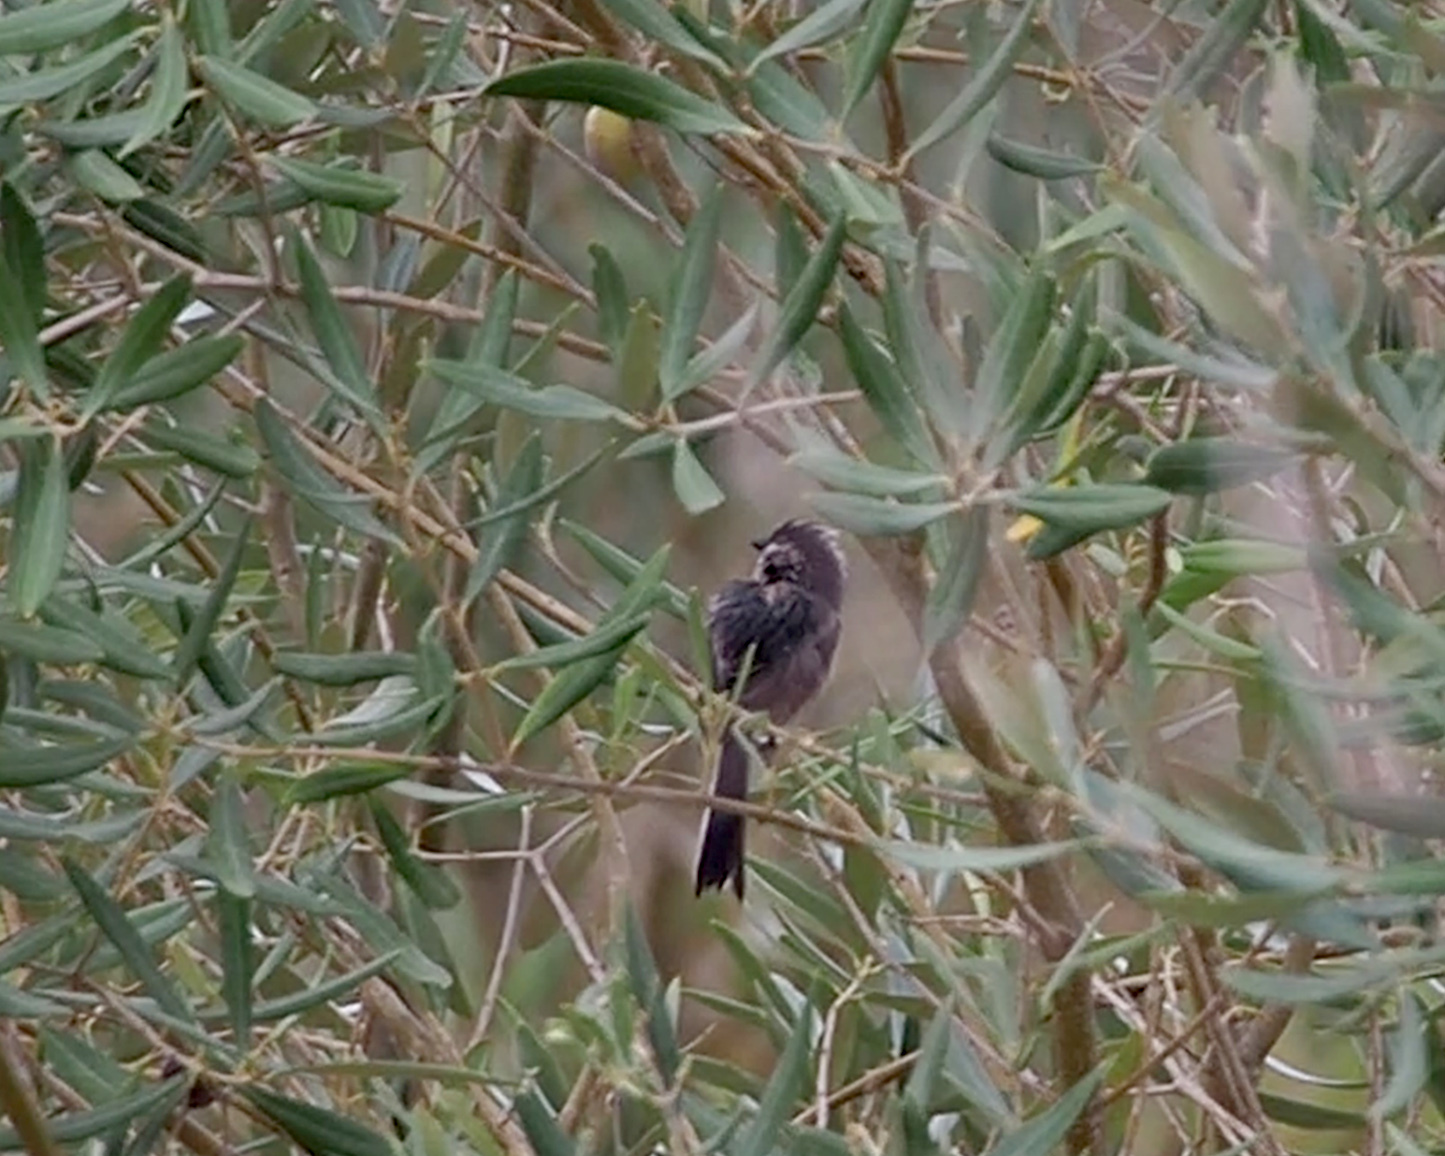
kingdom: Animalia
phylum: Chordata
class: Aves
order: Passeriformes
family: Aegithalidae
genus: Aegithalos
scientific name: Aegithalos caudatus
